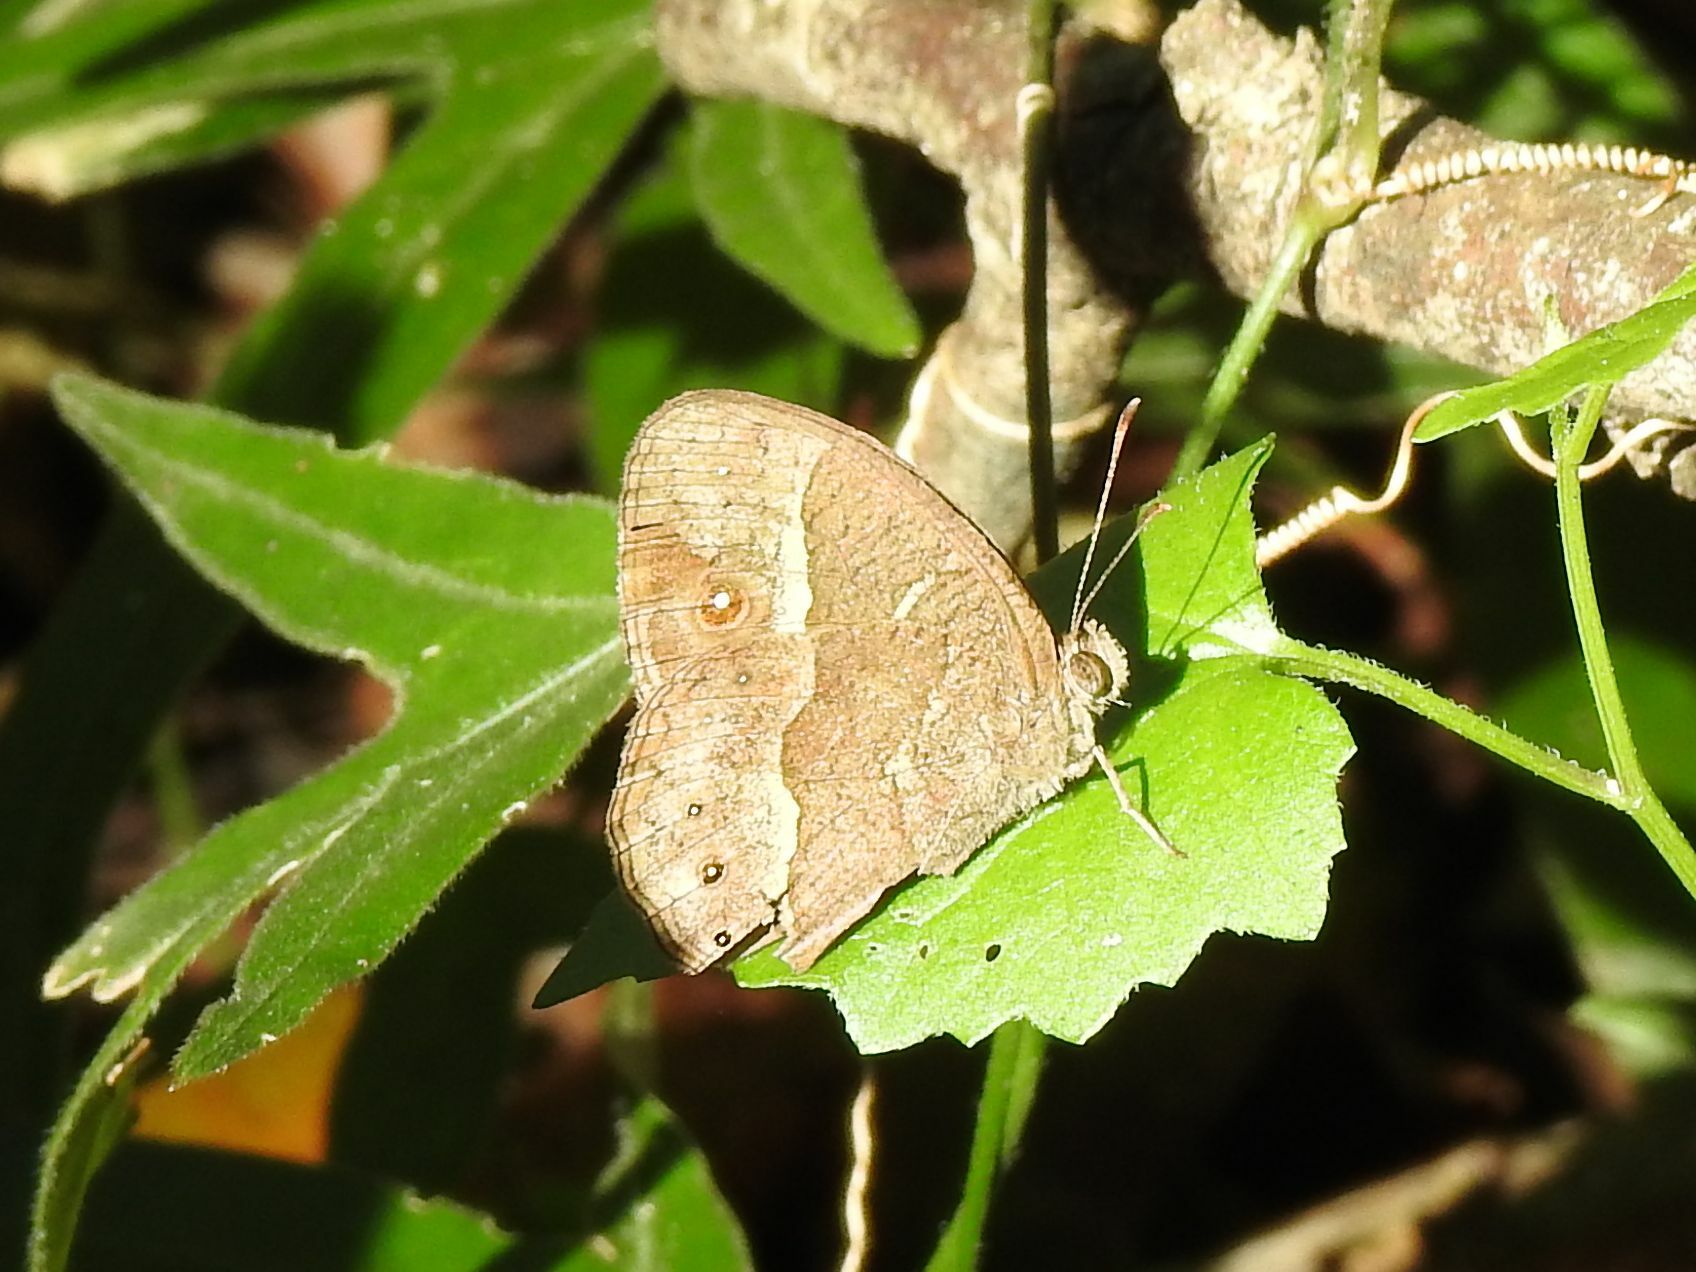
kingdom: Animalia
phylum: Arthropoda
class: Insecta
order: Lepidoptera
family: Nymphalidae
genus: Mycalesis
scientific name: Mycalesis anynana
